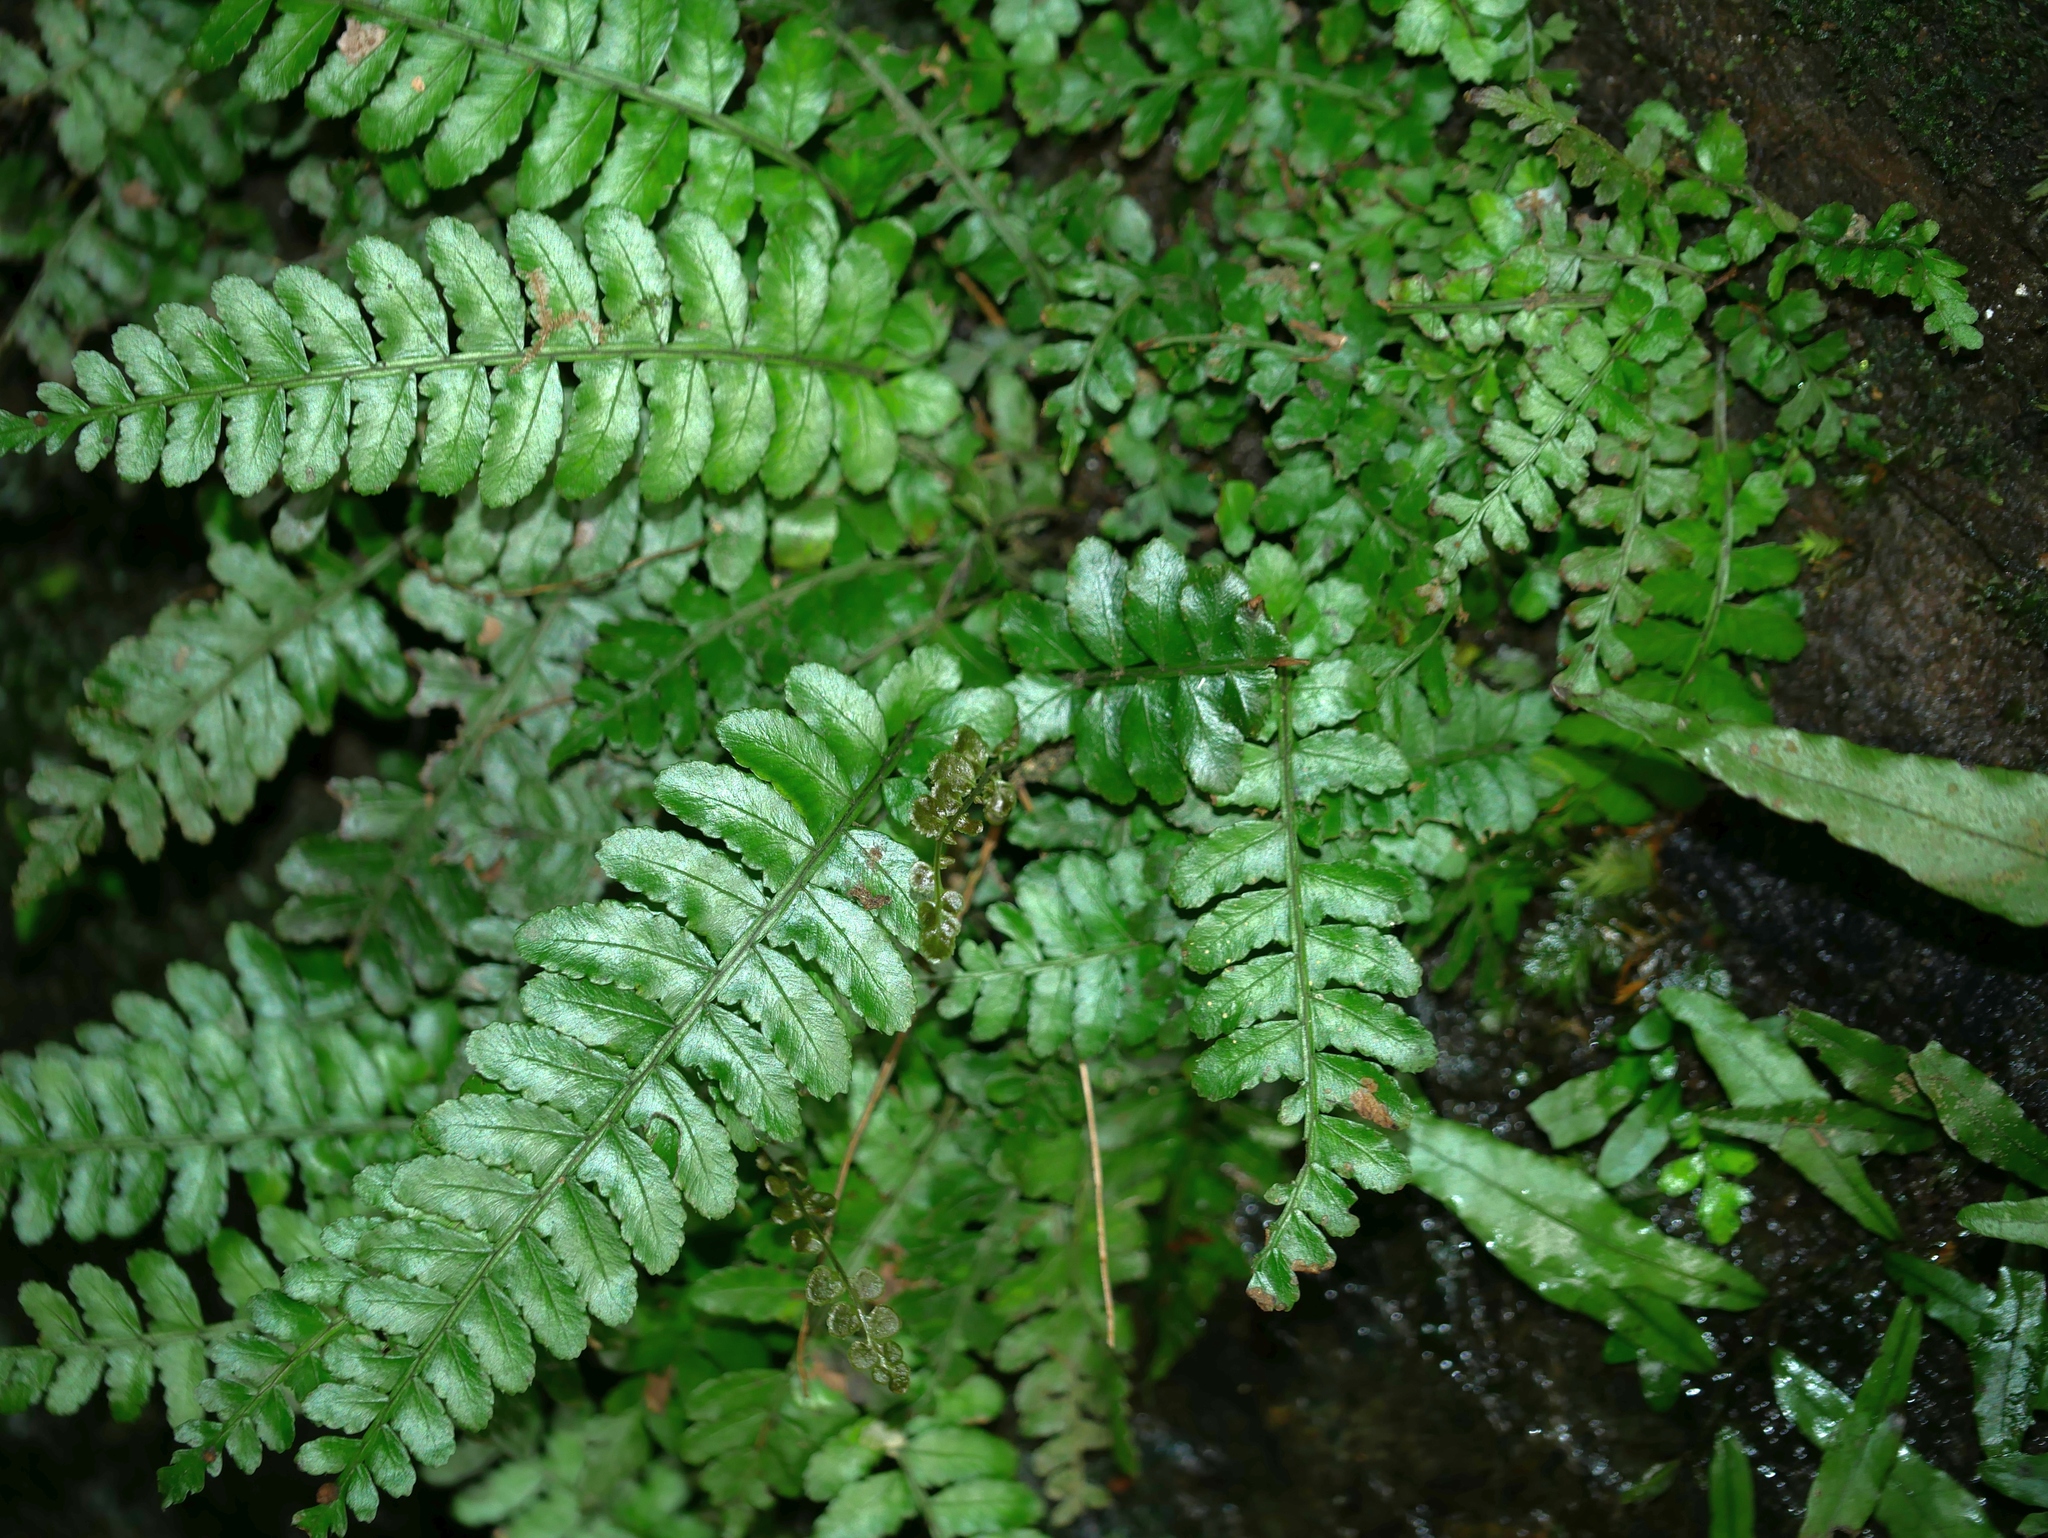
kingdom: Plantae
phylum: Tracheophyta
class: Polypodiopsida
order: Polypodiales
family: Dryopteridaceae
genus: Bolbitis
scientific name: Bolbitis appendiculata
